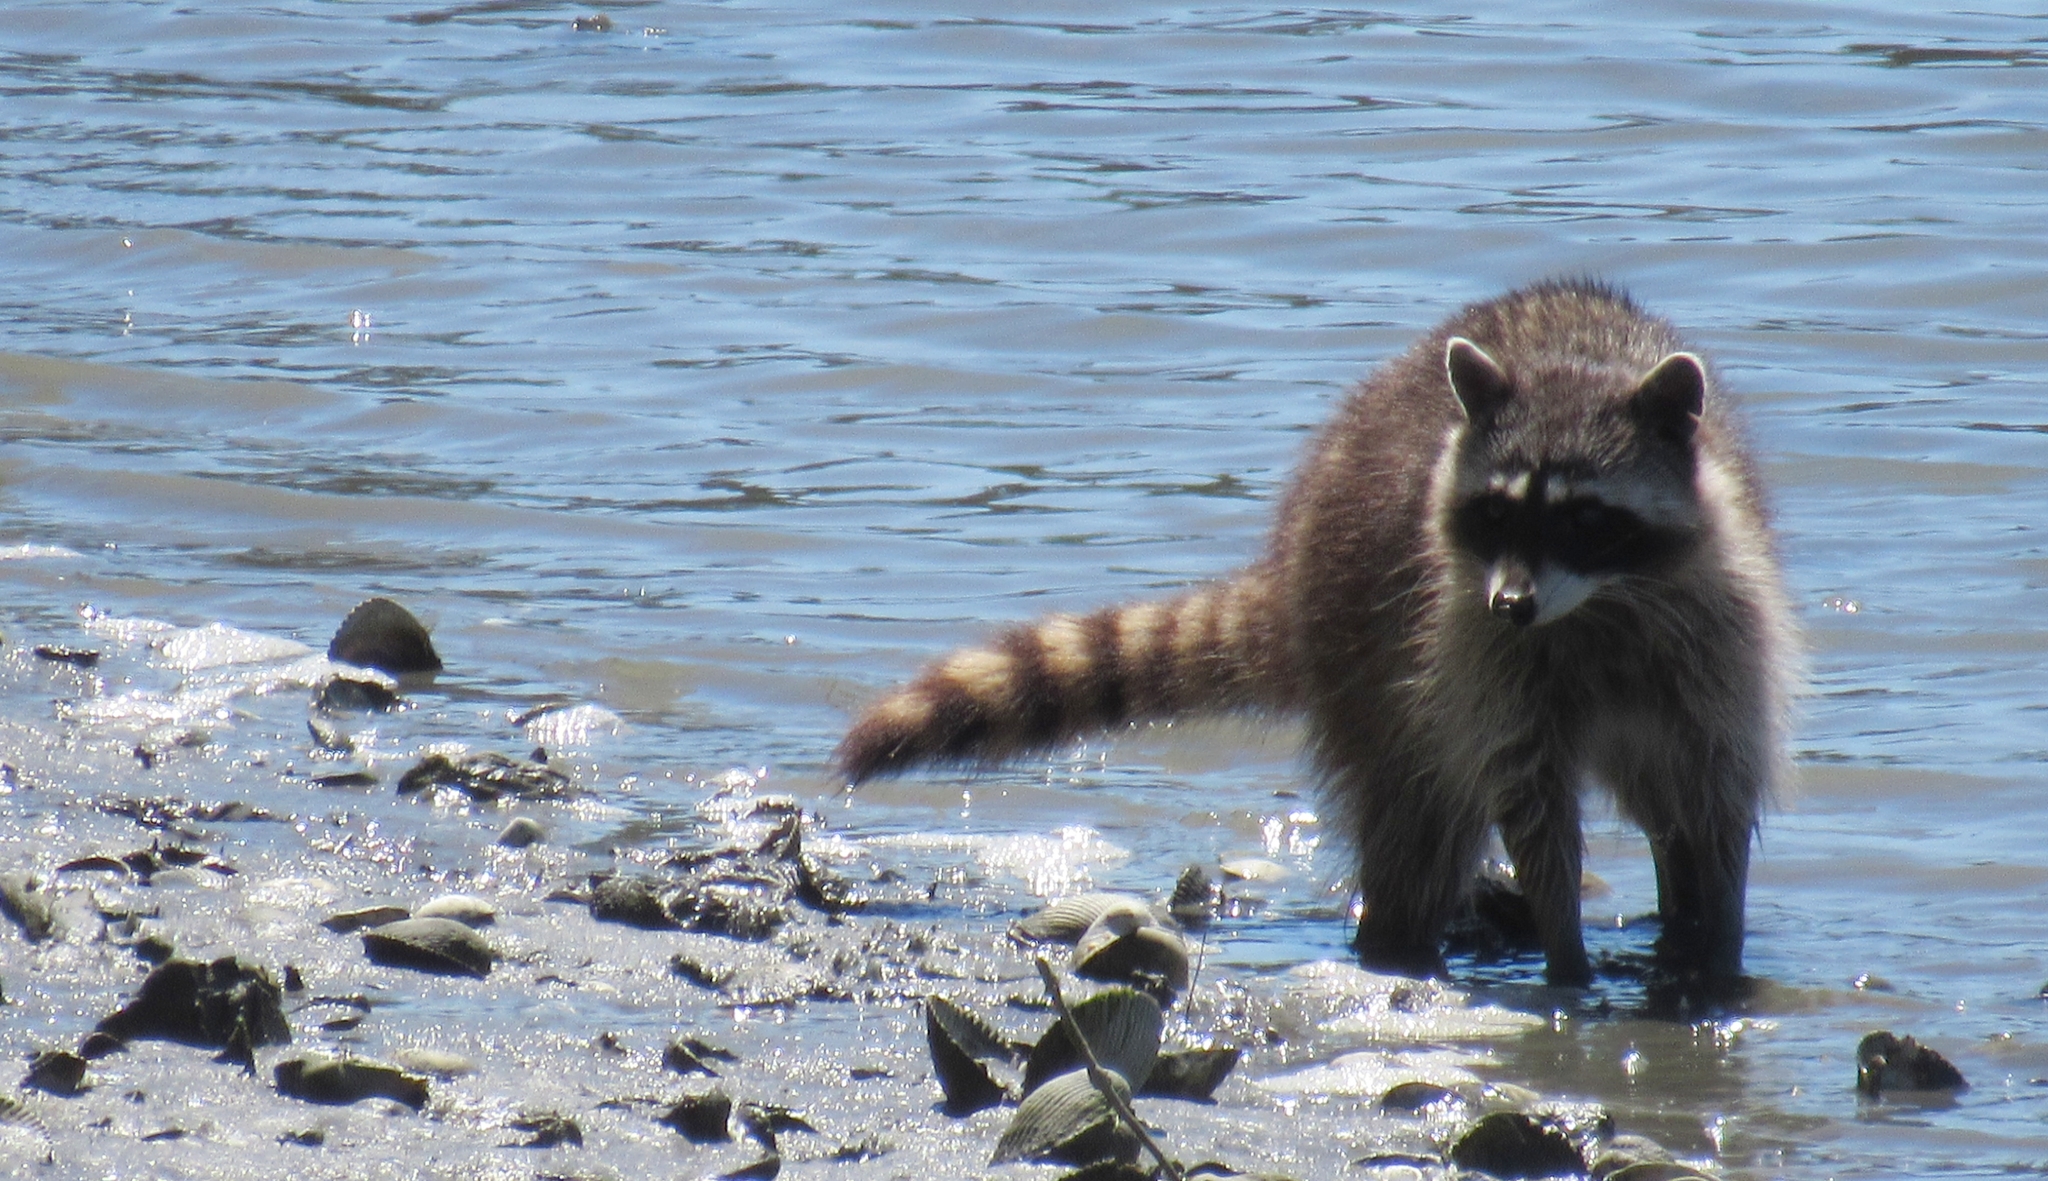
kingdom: Animalia
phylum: Chordata
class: Mammalia
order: Carnivora
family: Procyonidae
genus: Procyon
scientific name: Procyon lotor
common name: Raccoon
